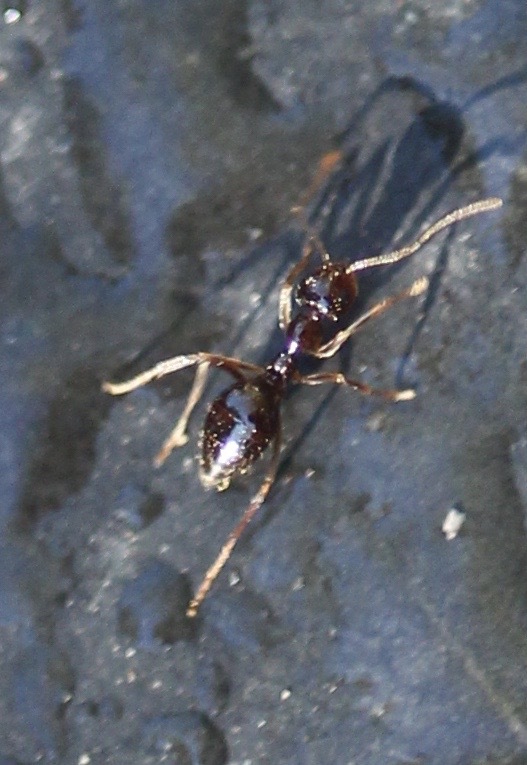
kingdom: Animalia
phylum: Arthropoda
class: Insecta
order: Hymenoptera
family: Formicidae
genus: Prenolepis
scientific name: Prenolepis imparis
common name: Small honey ant
